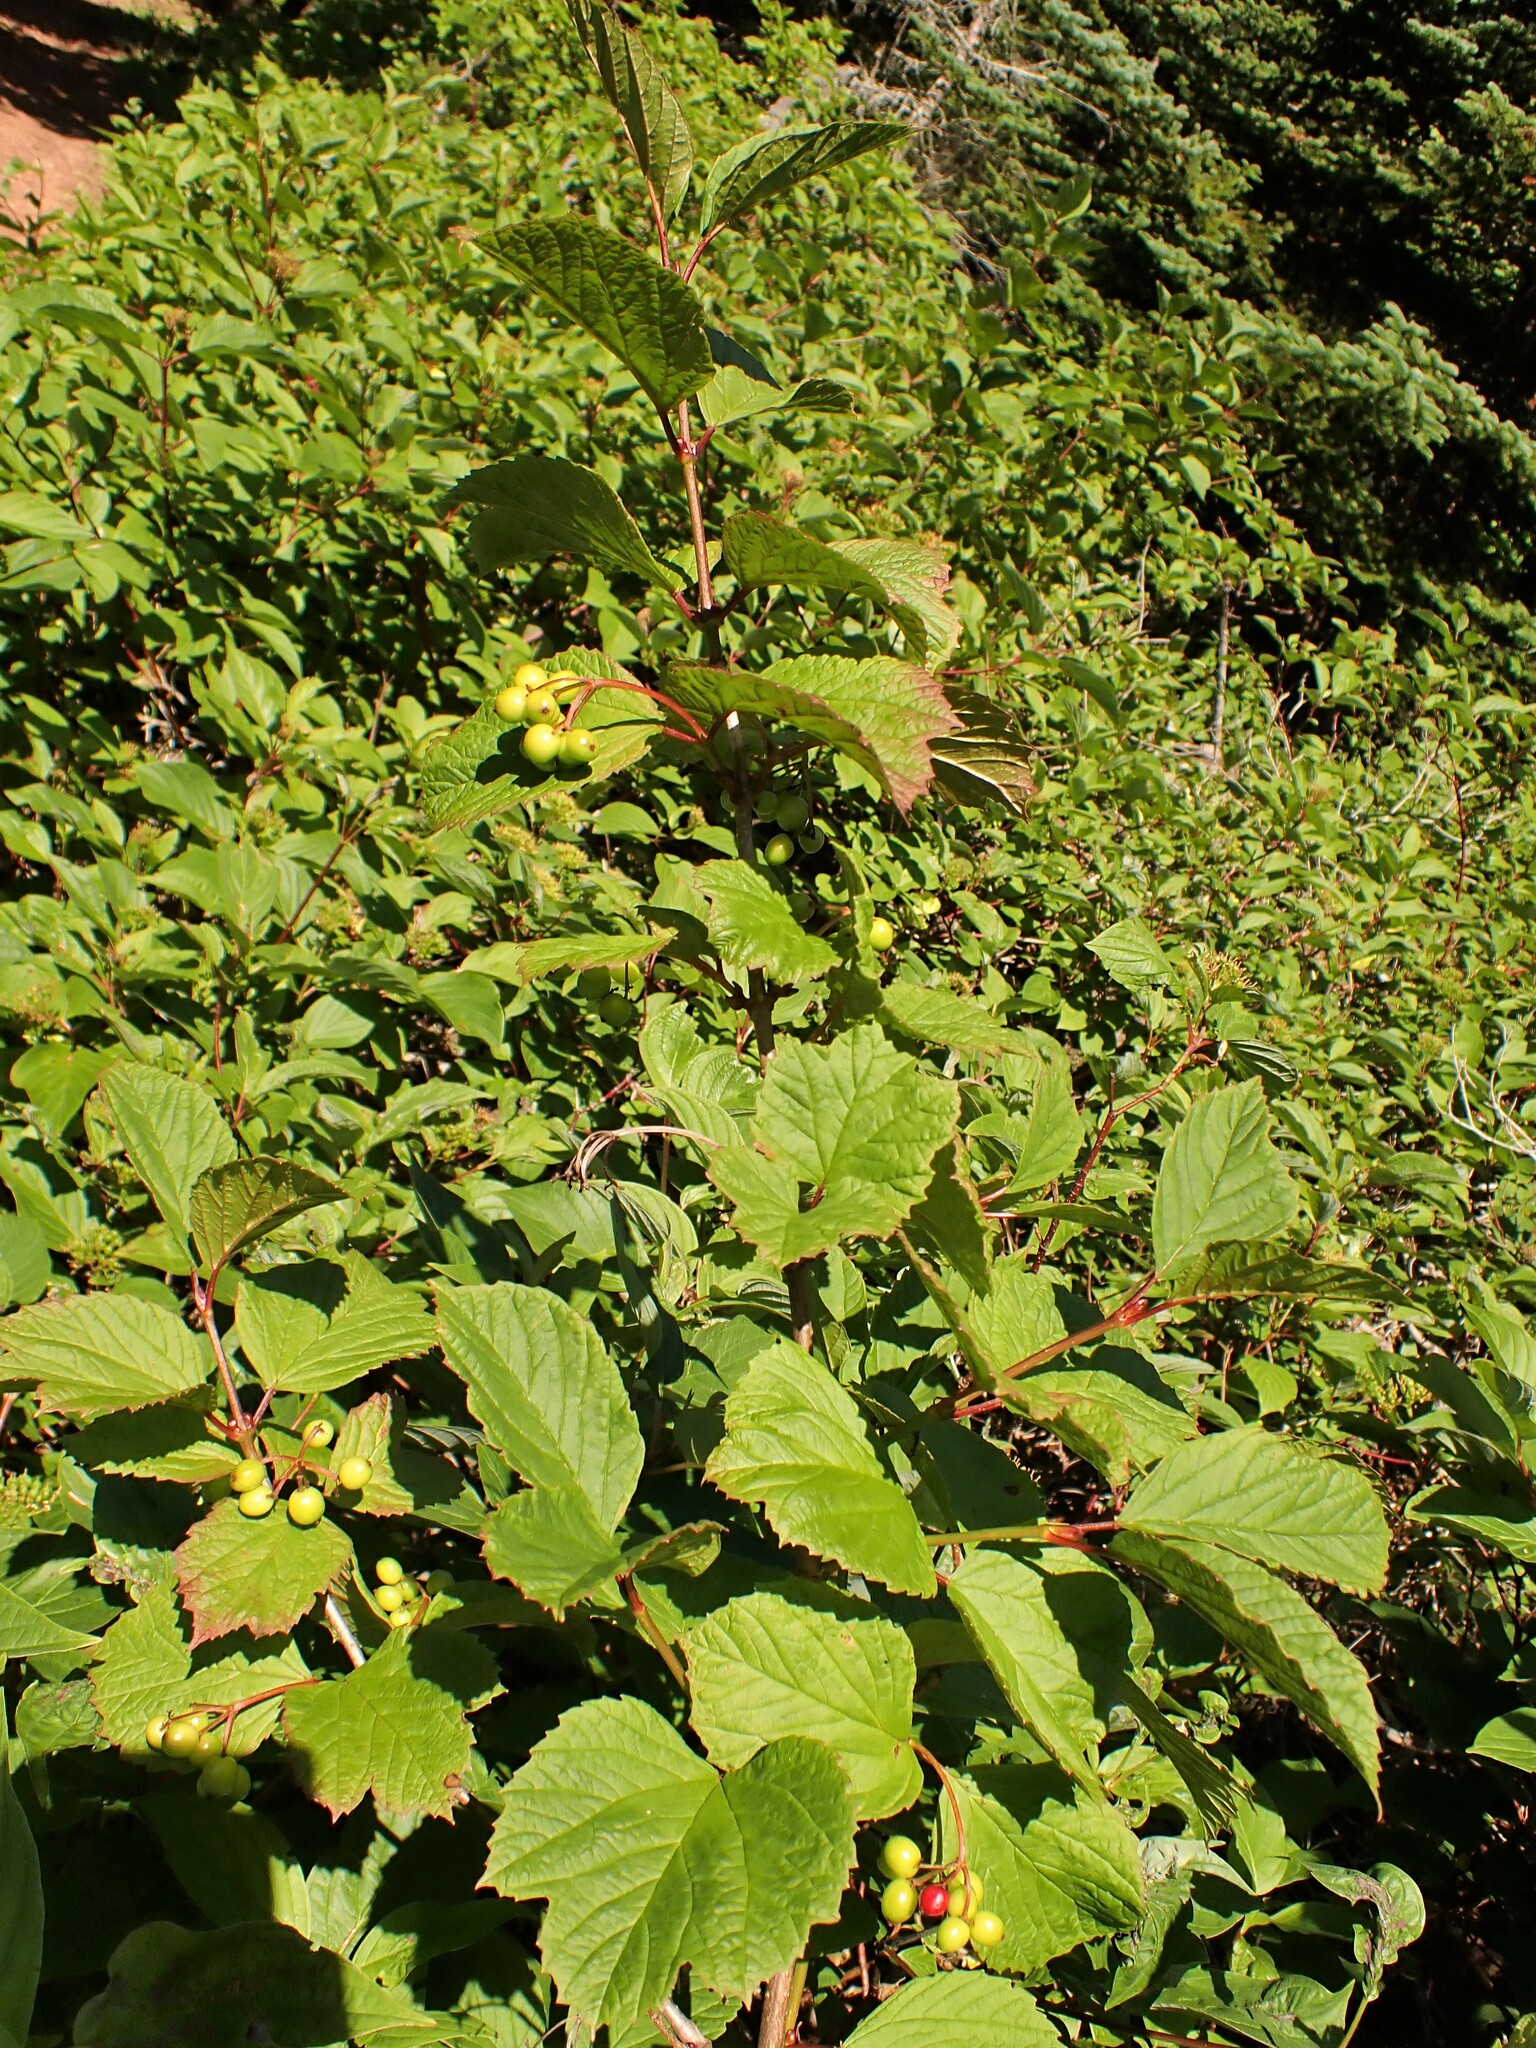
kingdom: Plantae
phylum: Tracheophyta
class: Magnoliopsida
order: Dipsacales
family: Viburnaceae
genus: Viburnum
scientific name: Viburnum edule
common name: Mooseberry
